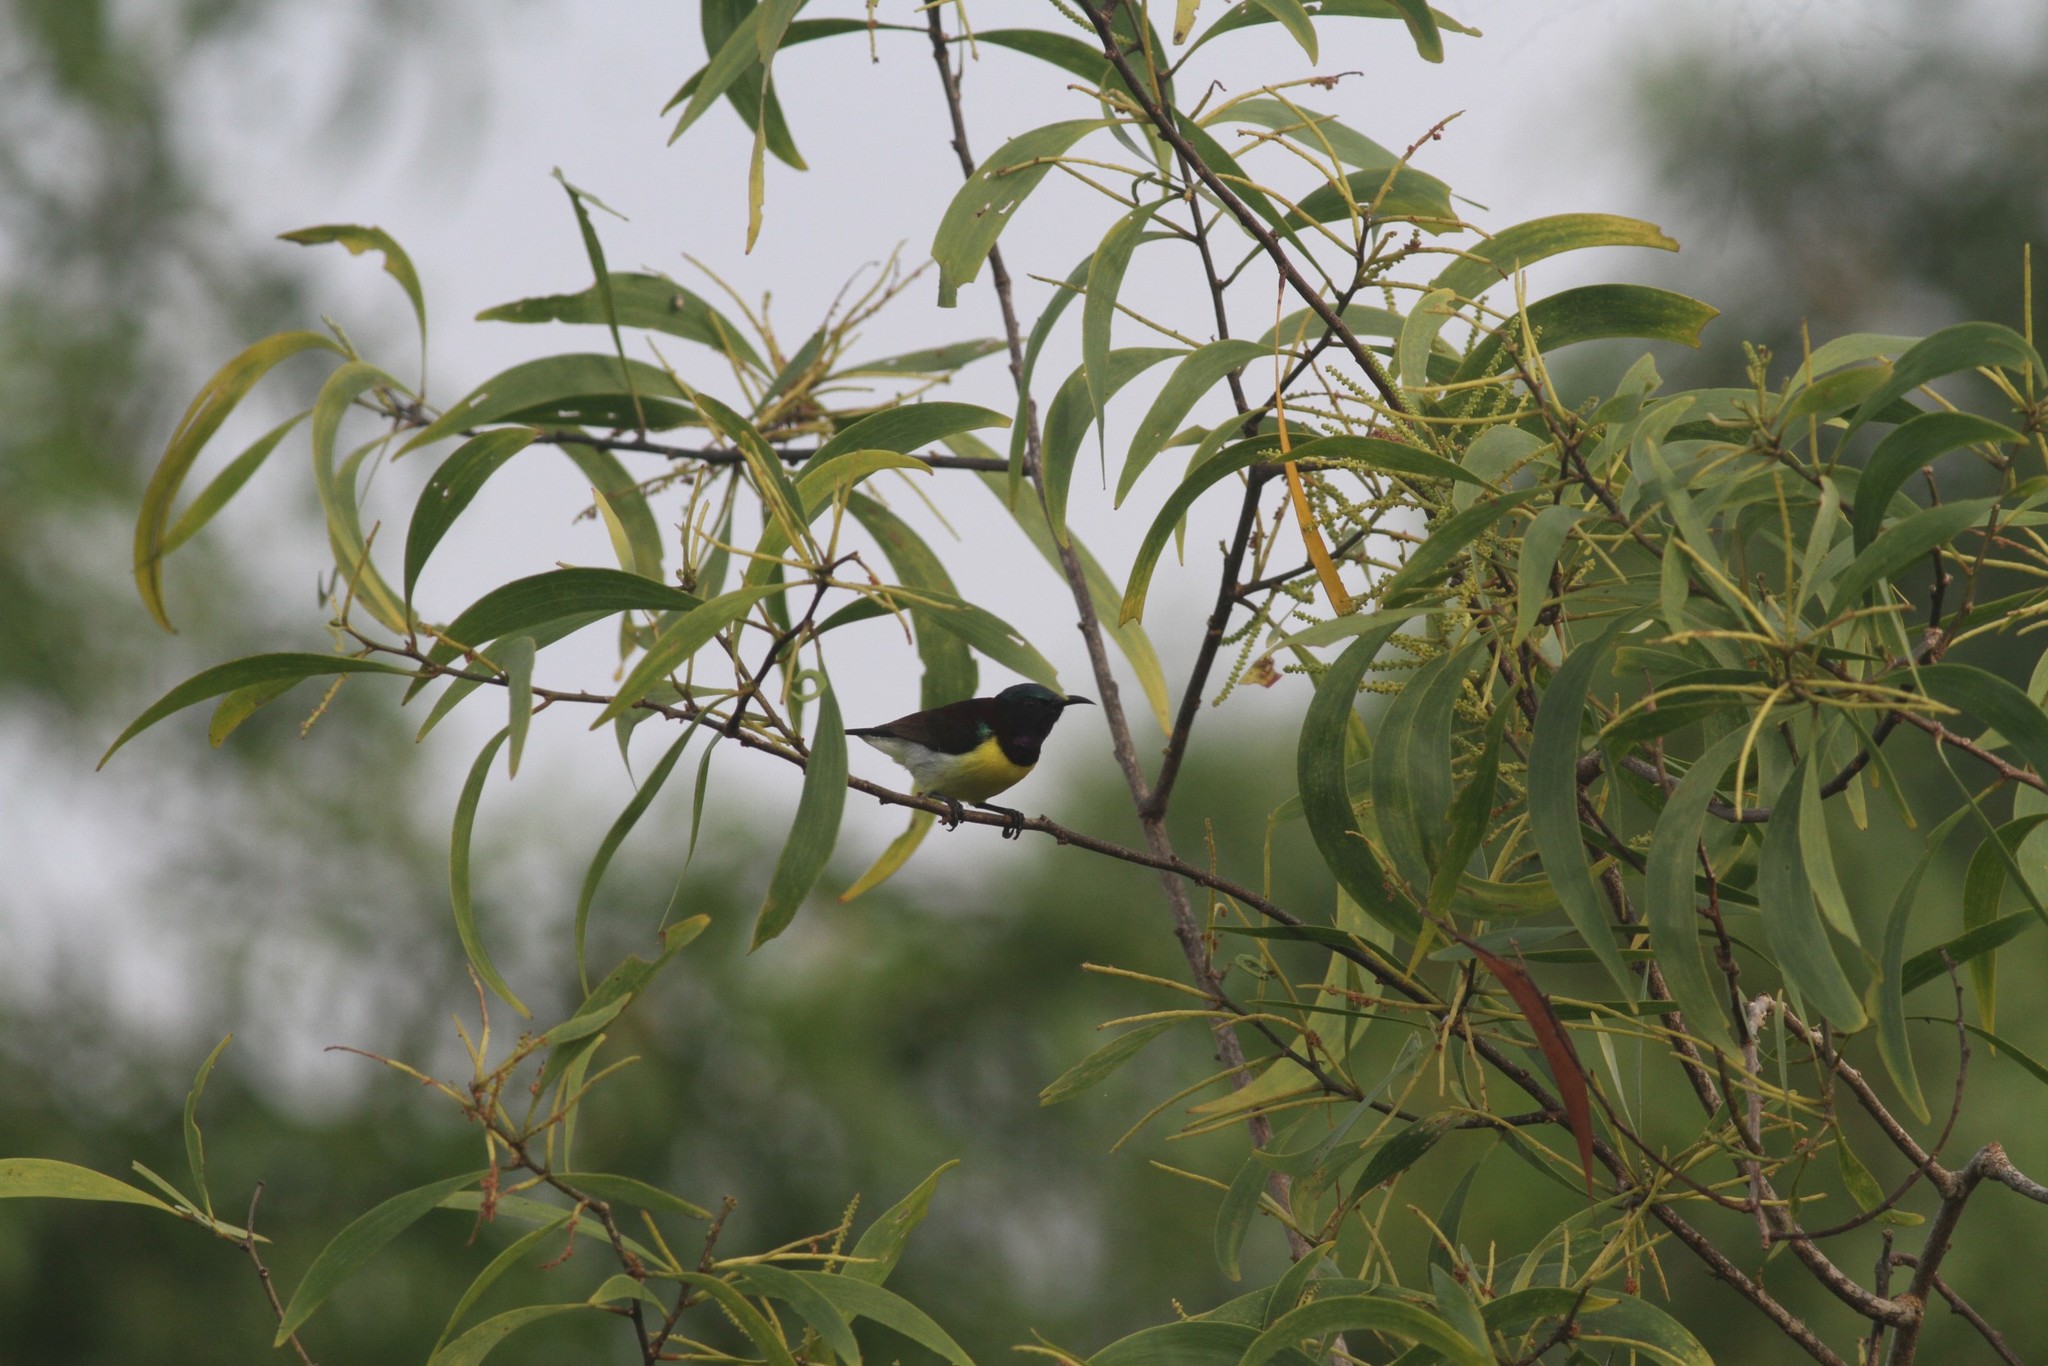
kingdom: Animalia
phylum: Chordata
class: Aves
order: Passeriformes
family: Nectariniidae
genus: Leptocoma
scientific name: Leptocoma zeylonica
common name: Purple-rumped sunbird
